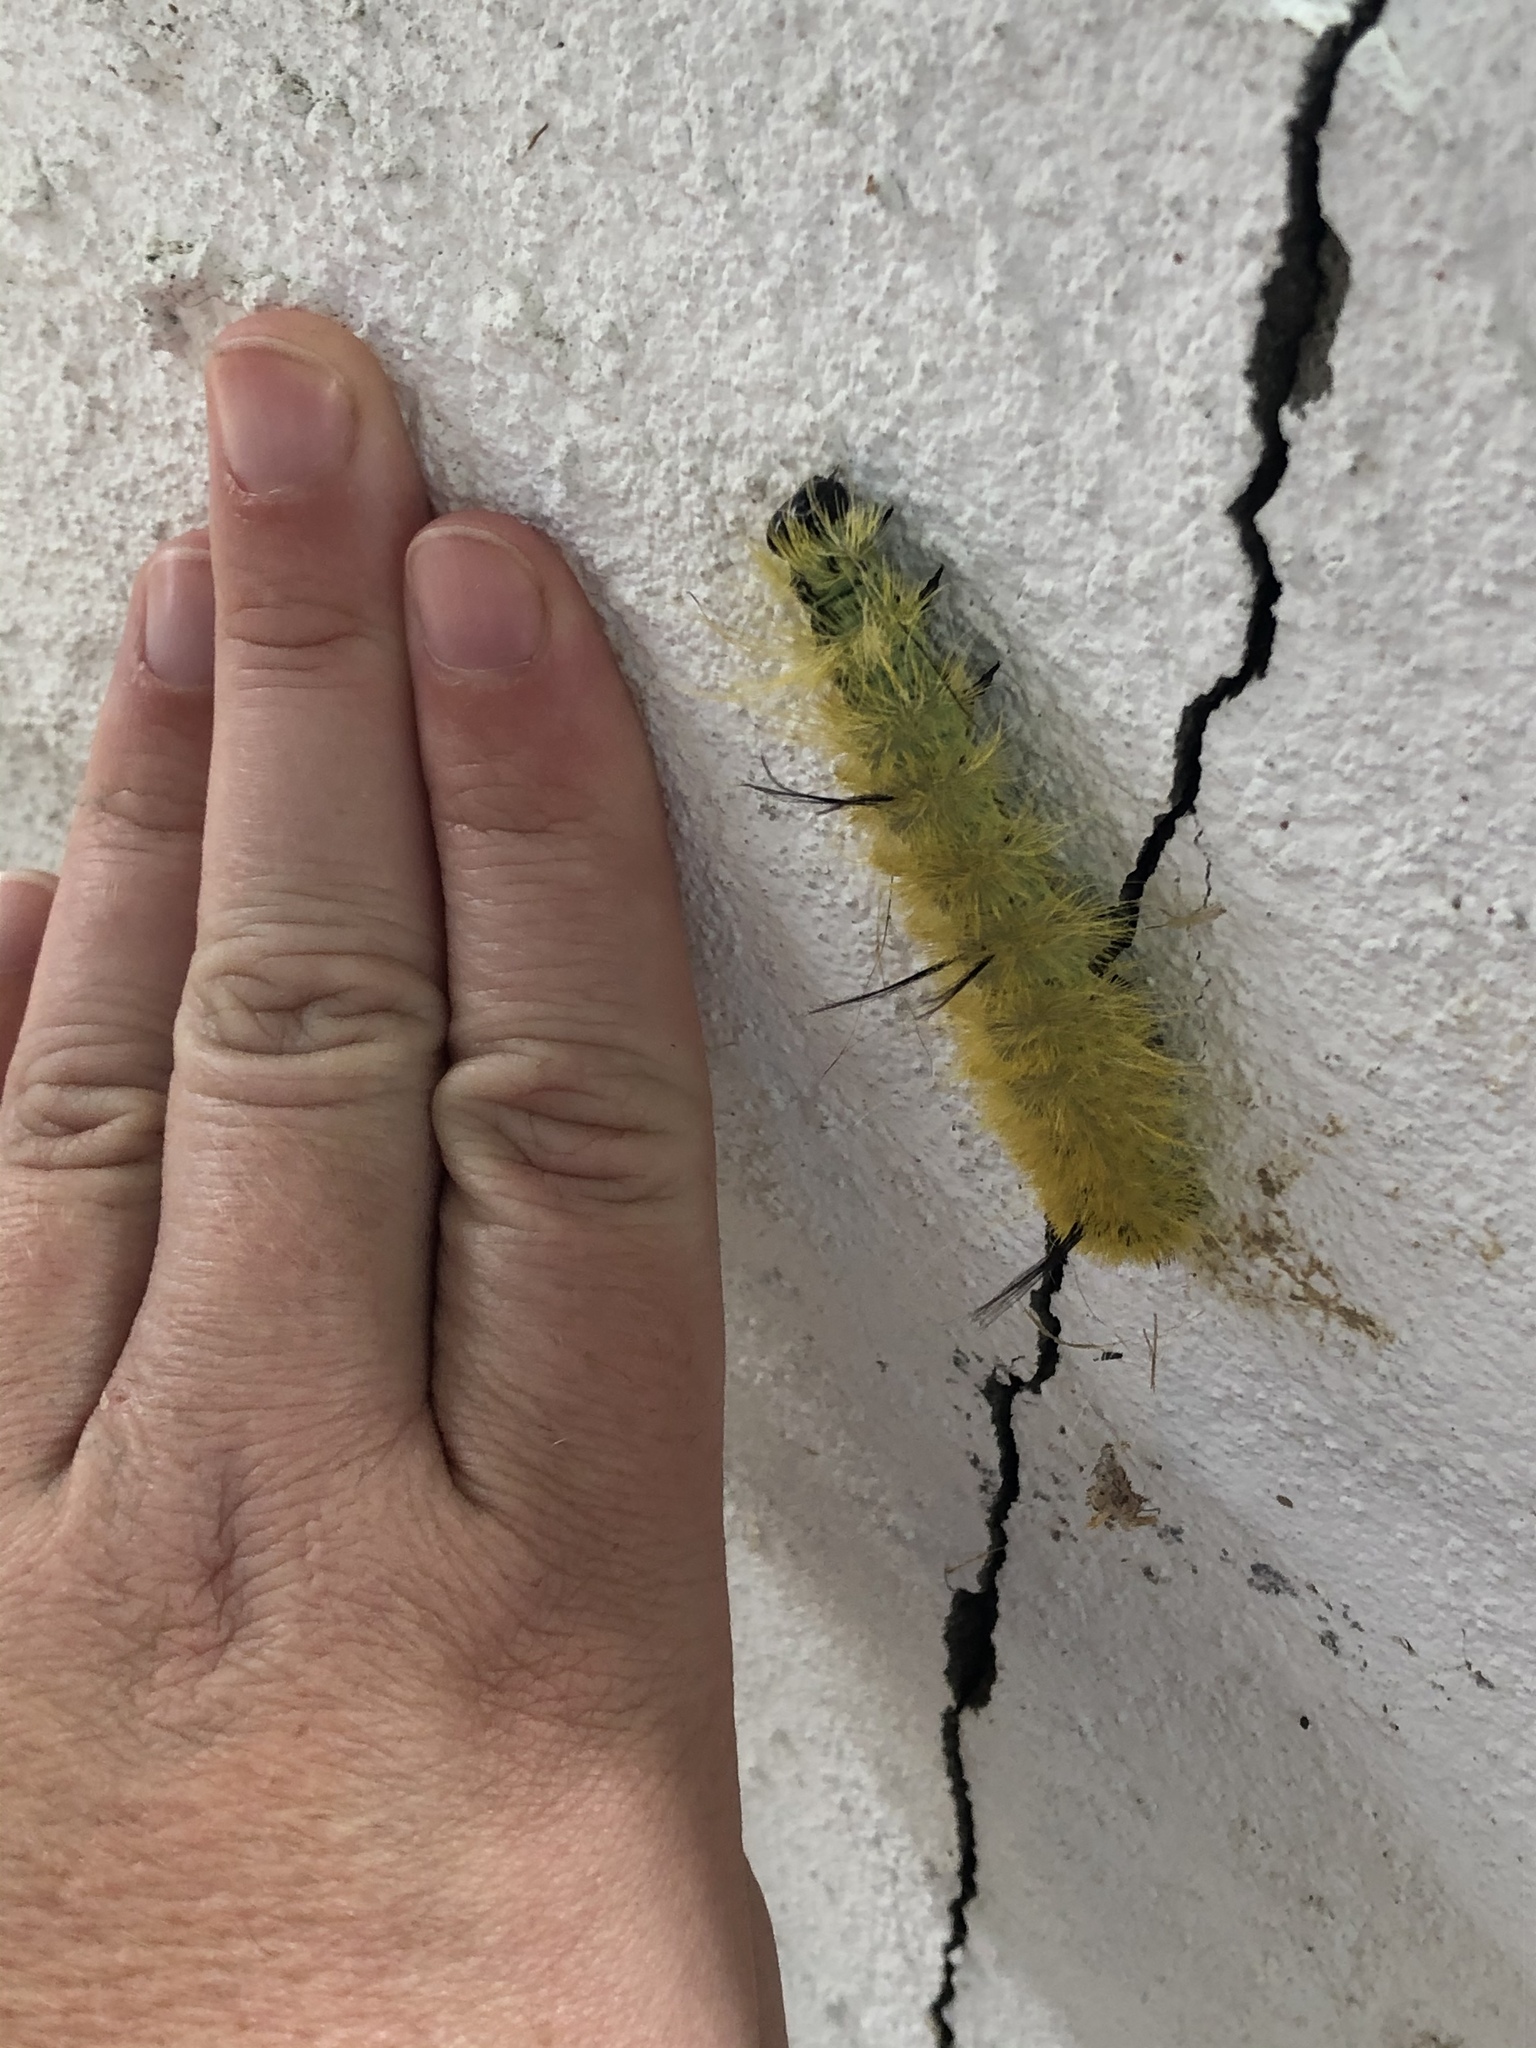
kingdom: Animalia
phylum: Arthropoda
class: Insecta
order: Lepidoptera
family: Noctuidae
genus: Acronicta
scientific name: Acronicta americana
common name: American dagger
